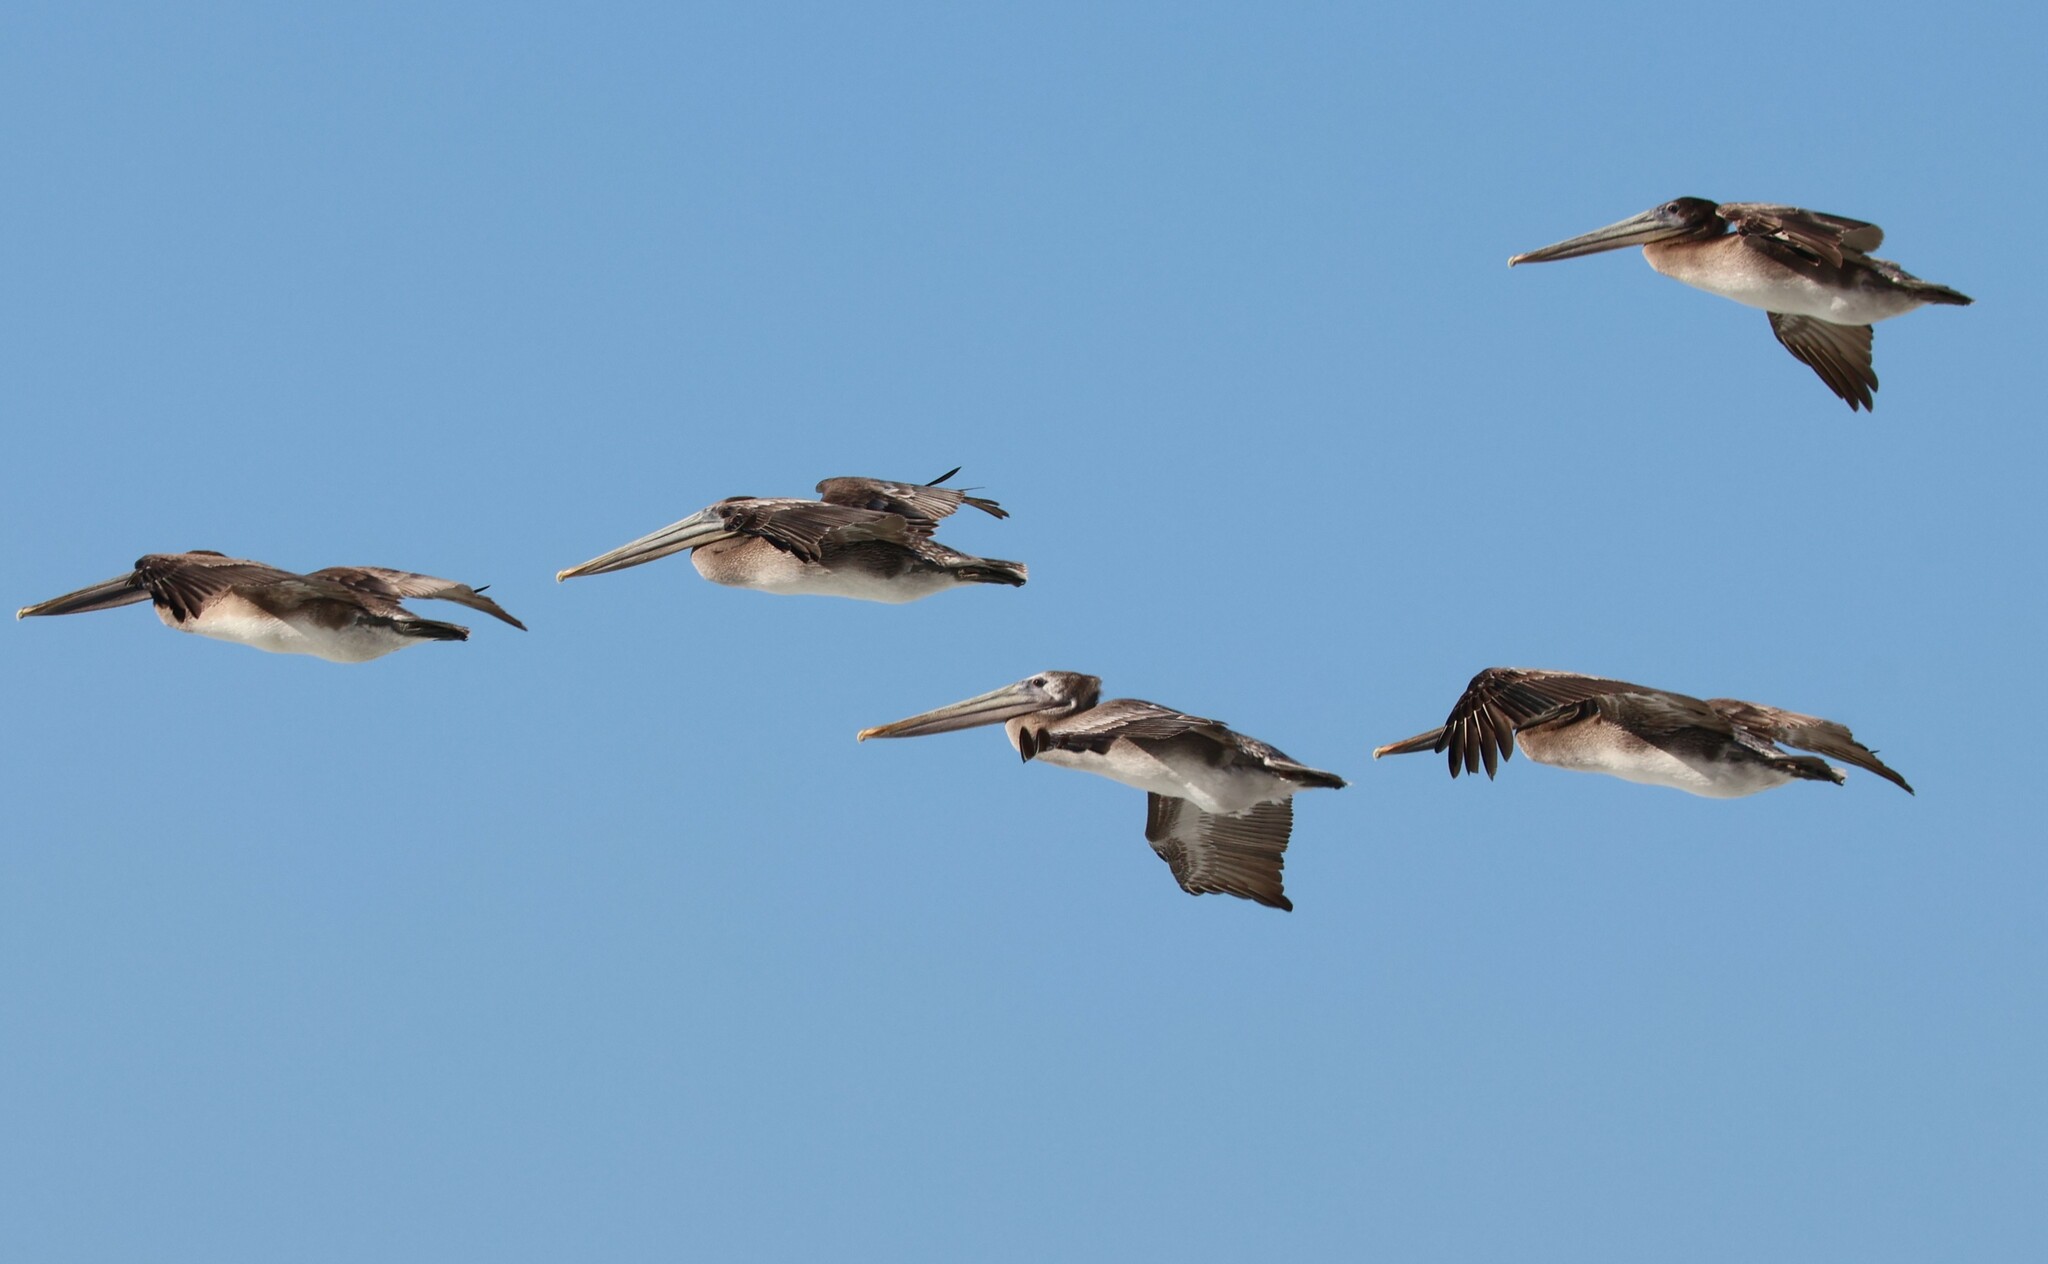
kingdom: Animalia
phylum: Chordata
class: Aves
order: Pelecaniformes
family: Pelecanidae
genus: Pelecanus
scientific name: Pelecanus occidentalis
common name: Brown pelican
